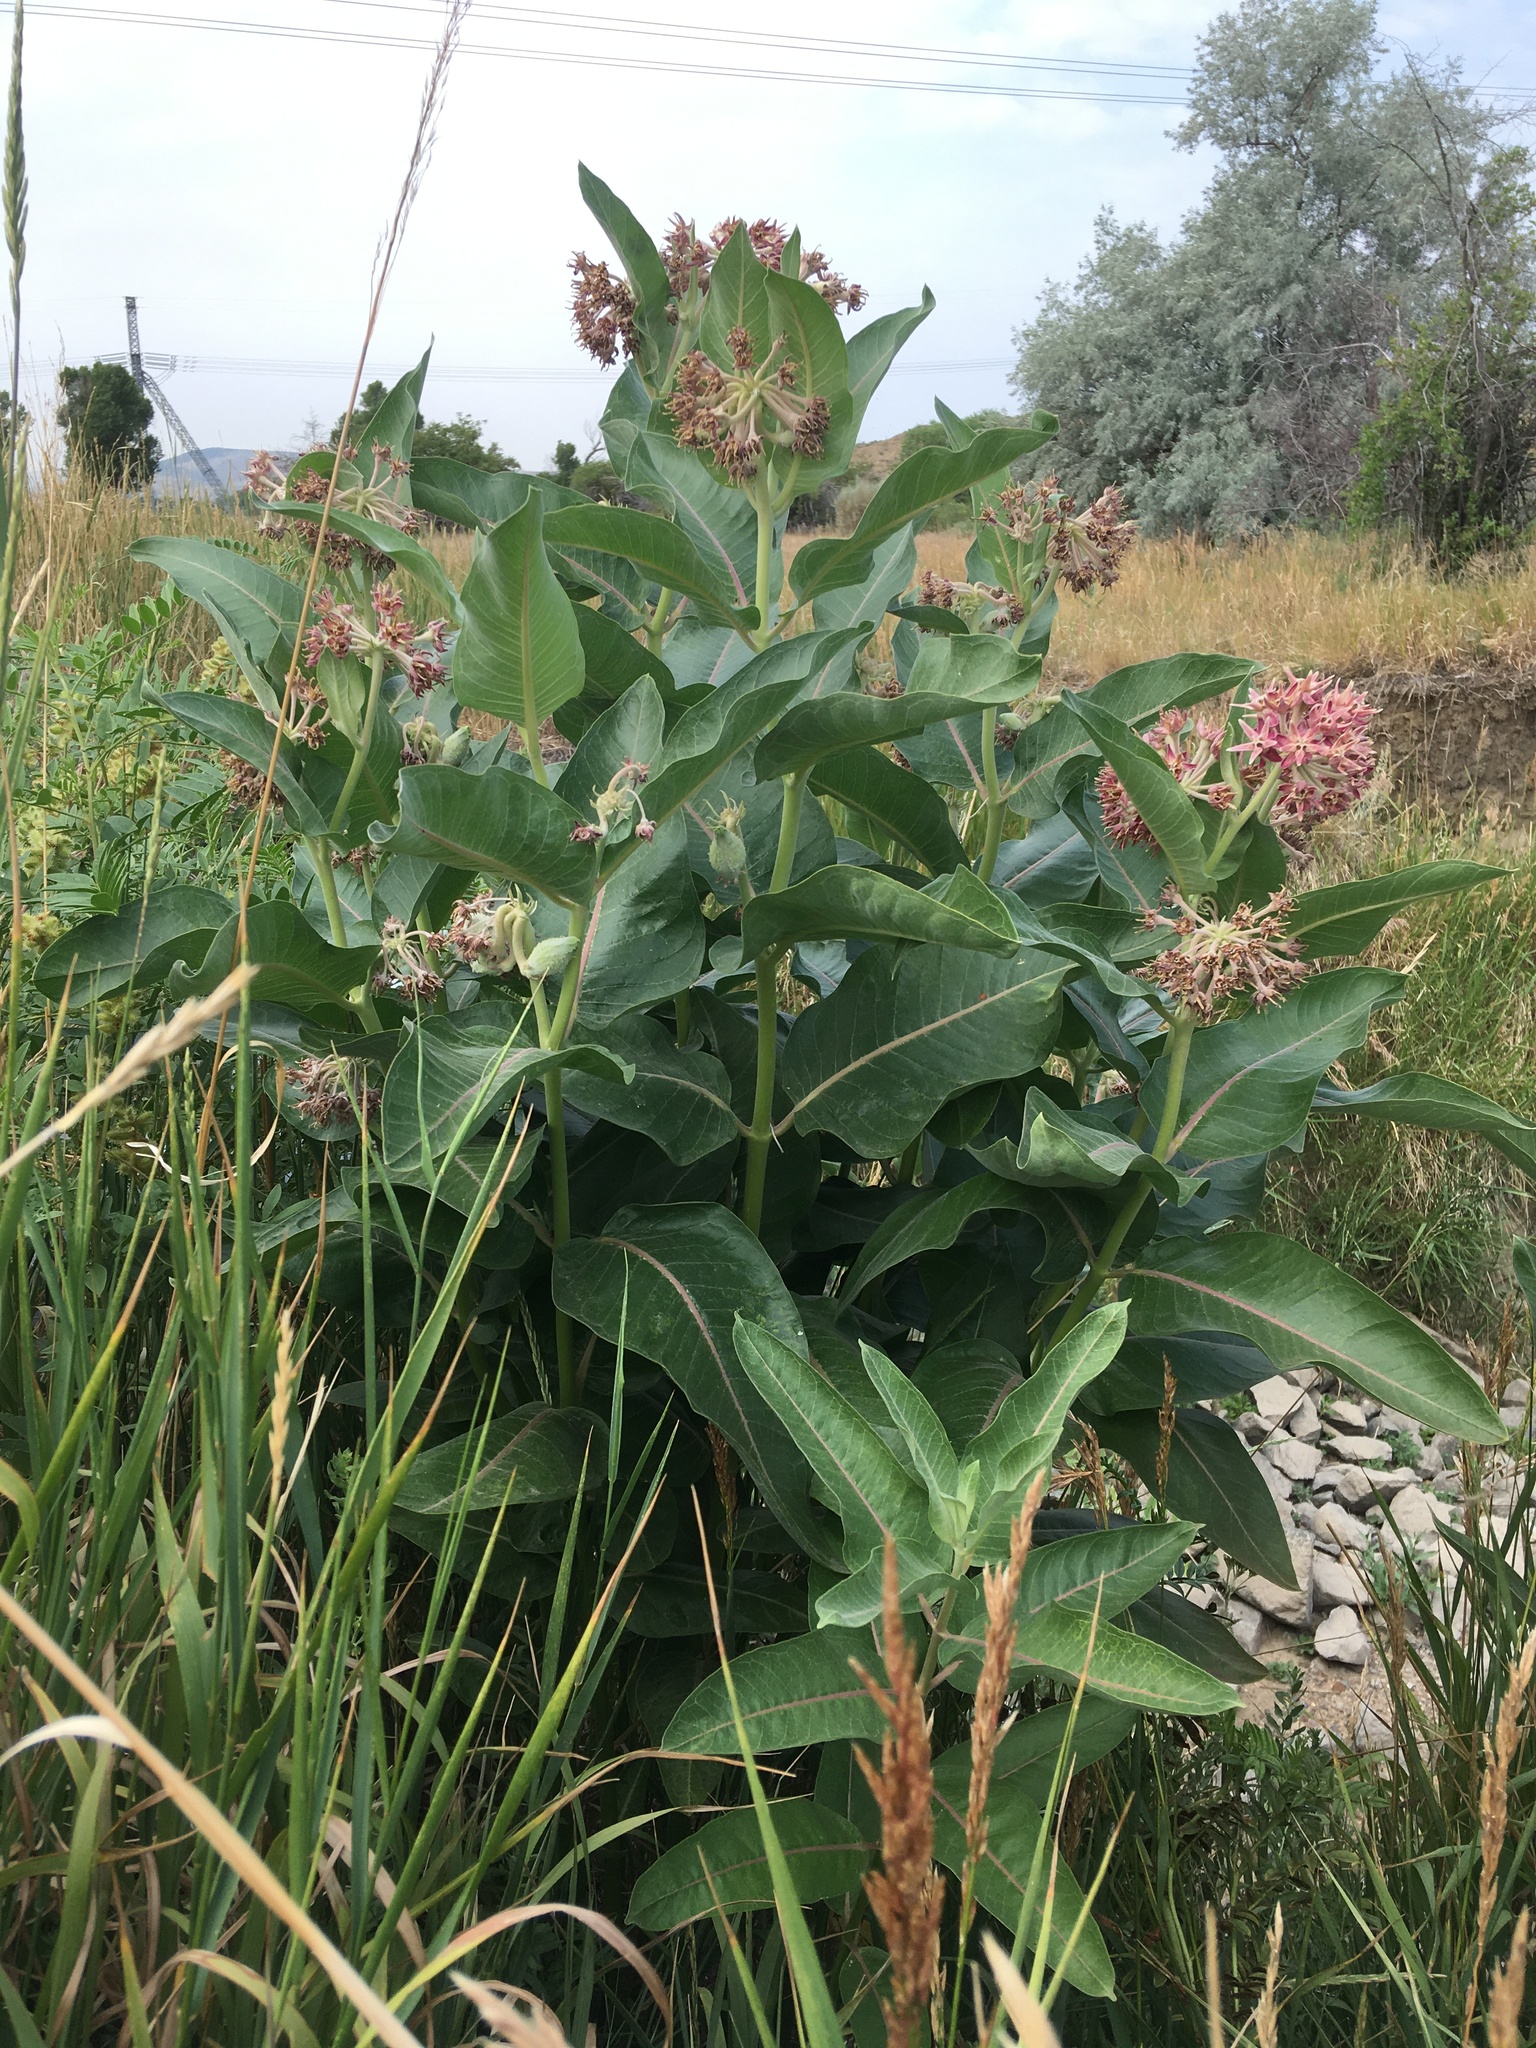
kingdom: Plantae
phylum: Tracheophyta
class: Magnoliopsida
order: Gentianales
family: Apocynaceae
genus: Asclepias
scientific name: Asclepias speciosa
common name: Showy milkweed
